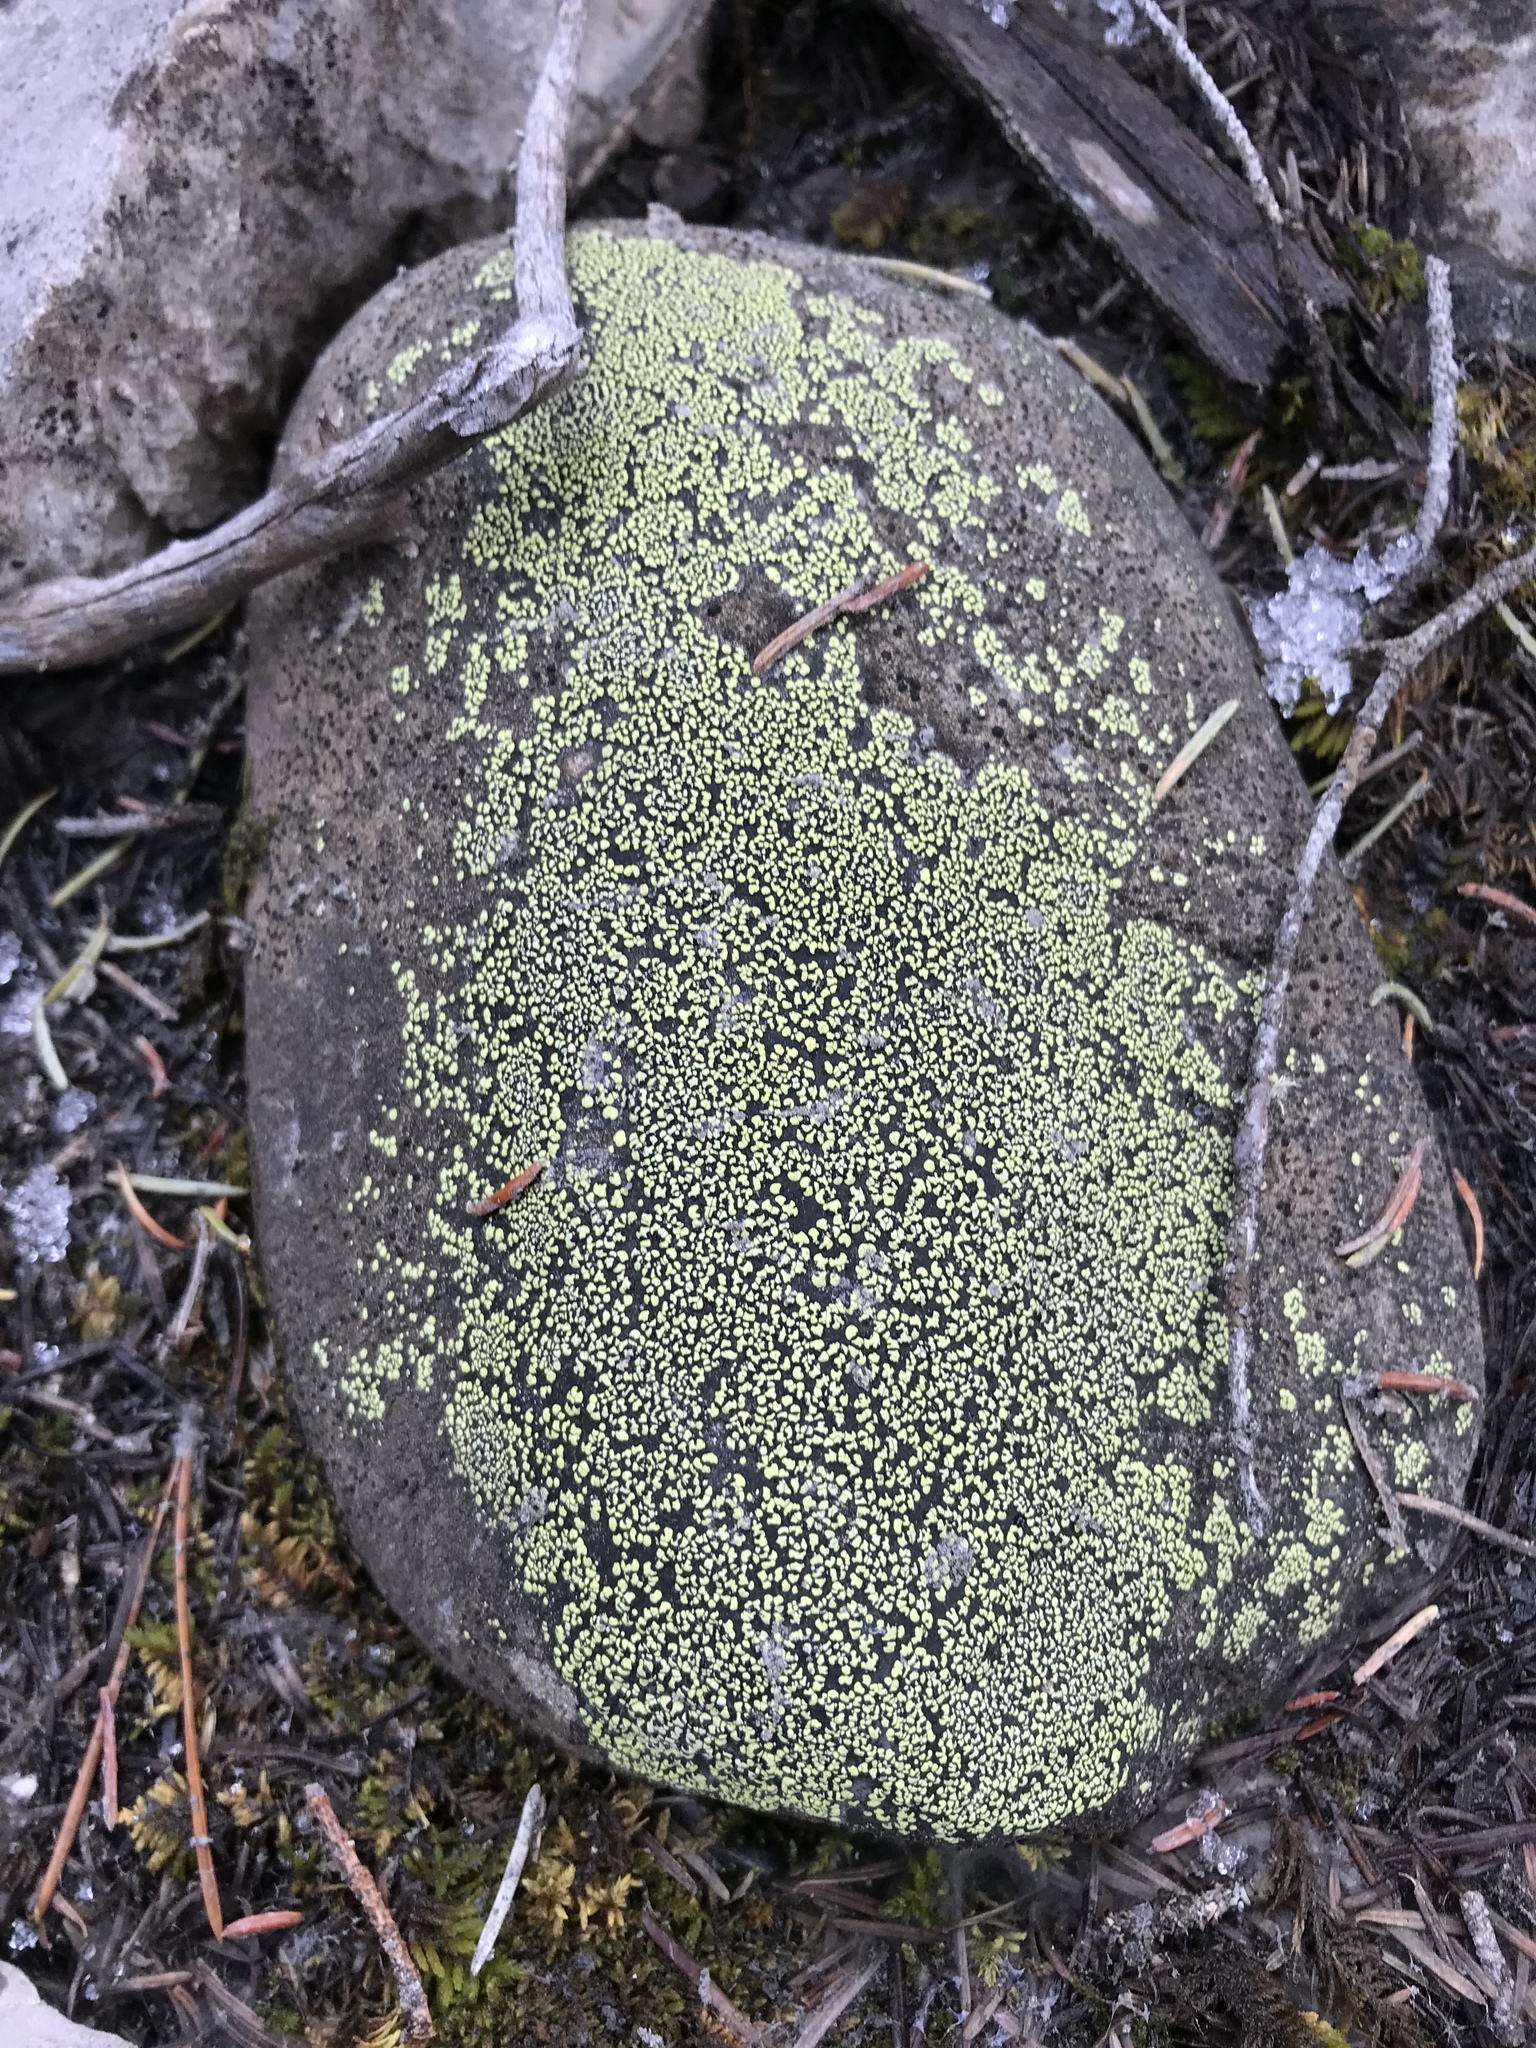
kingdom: Fungi
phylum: Ascomycota
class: Lecanoromycetes
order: Rhizocarpales
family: Rhizocarpaceae
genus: Rhizocarpon
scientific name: Rhizocarpon geographicum
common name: Yellow map lichen
